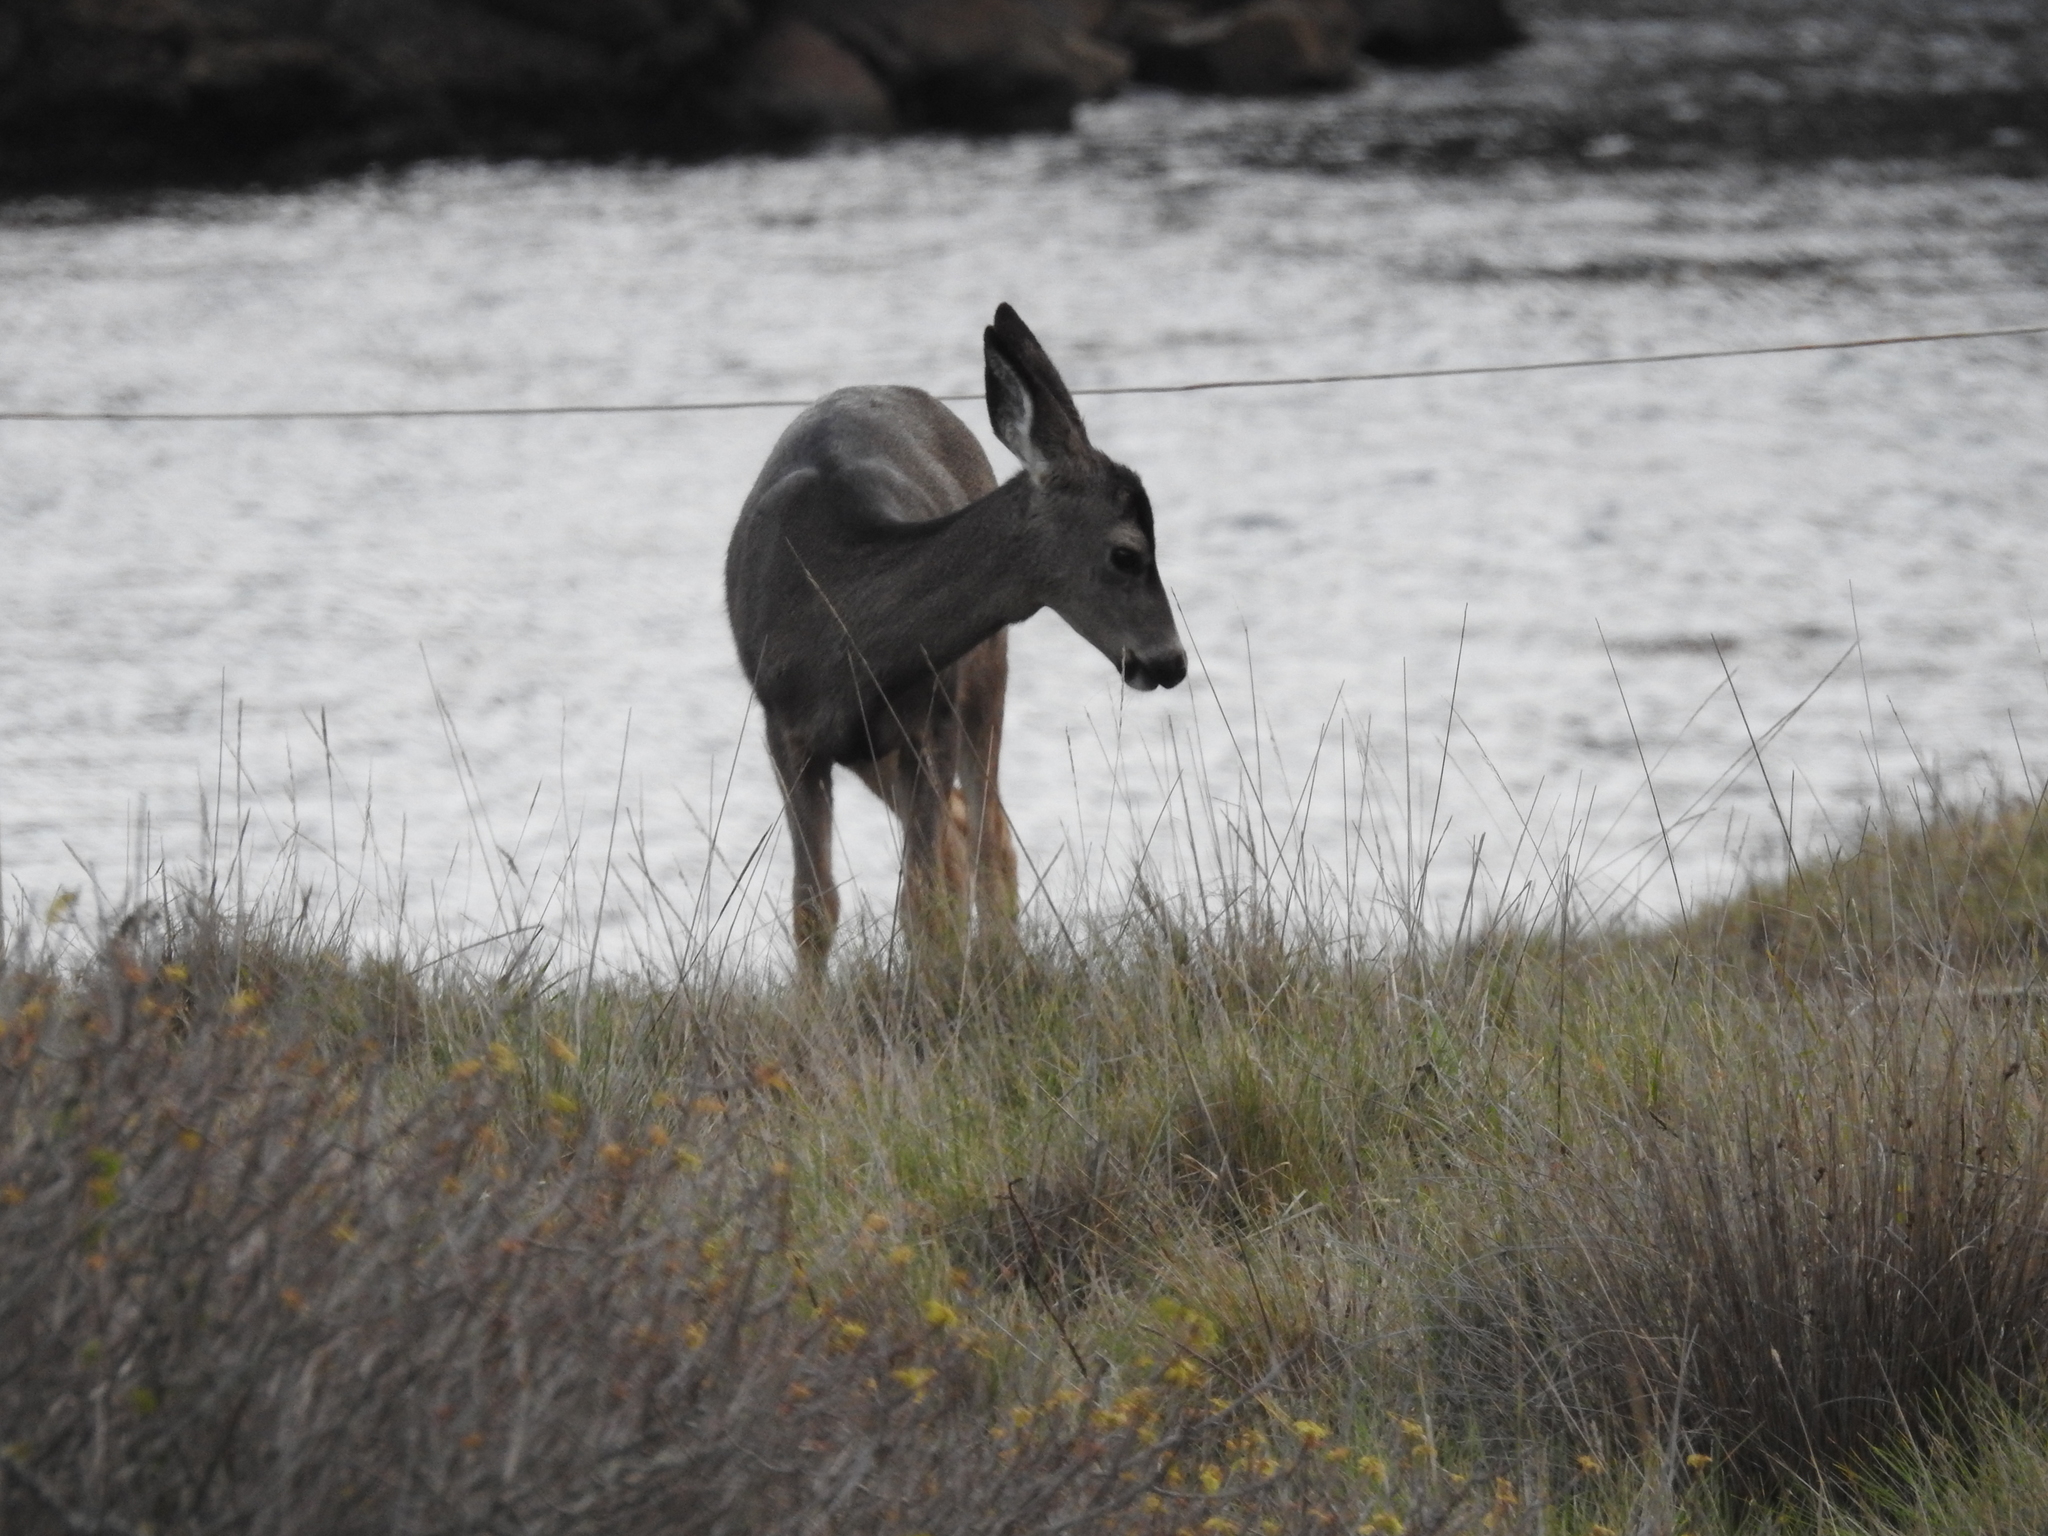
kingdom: Animalia
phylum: Chordata
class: Mammalia
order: Artiodactyla
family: Cervidae
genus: Odocoileus
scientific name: Odocoileus hemionus
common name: Mule deer
